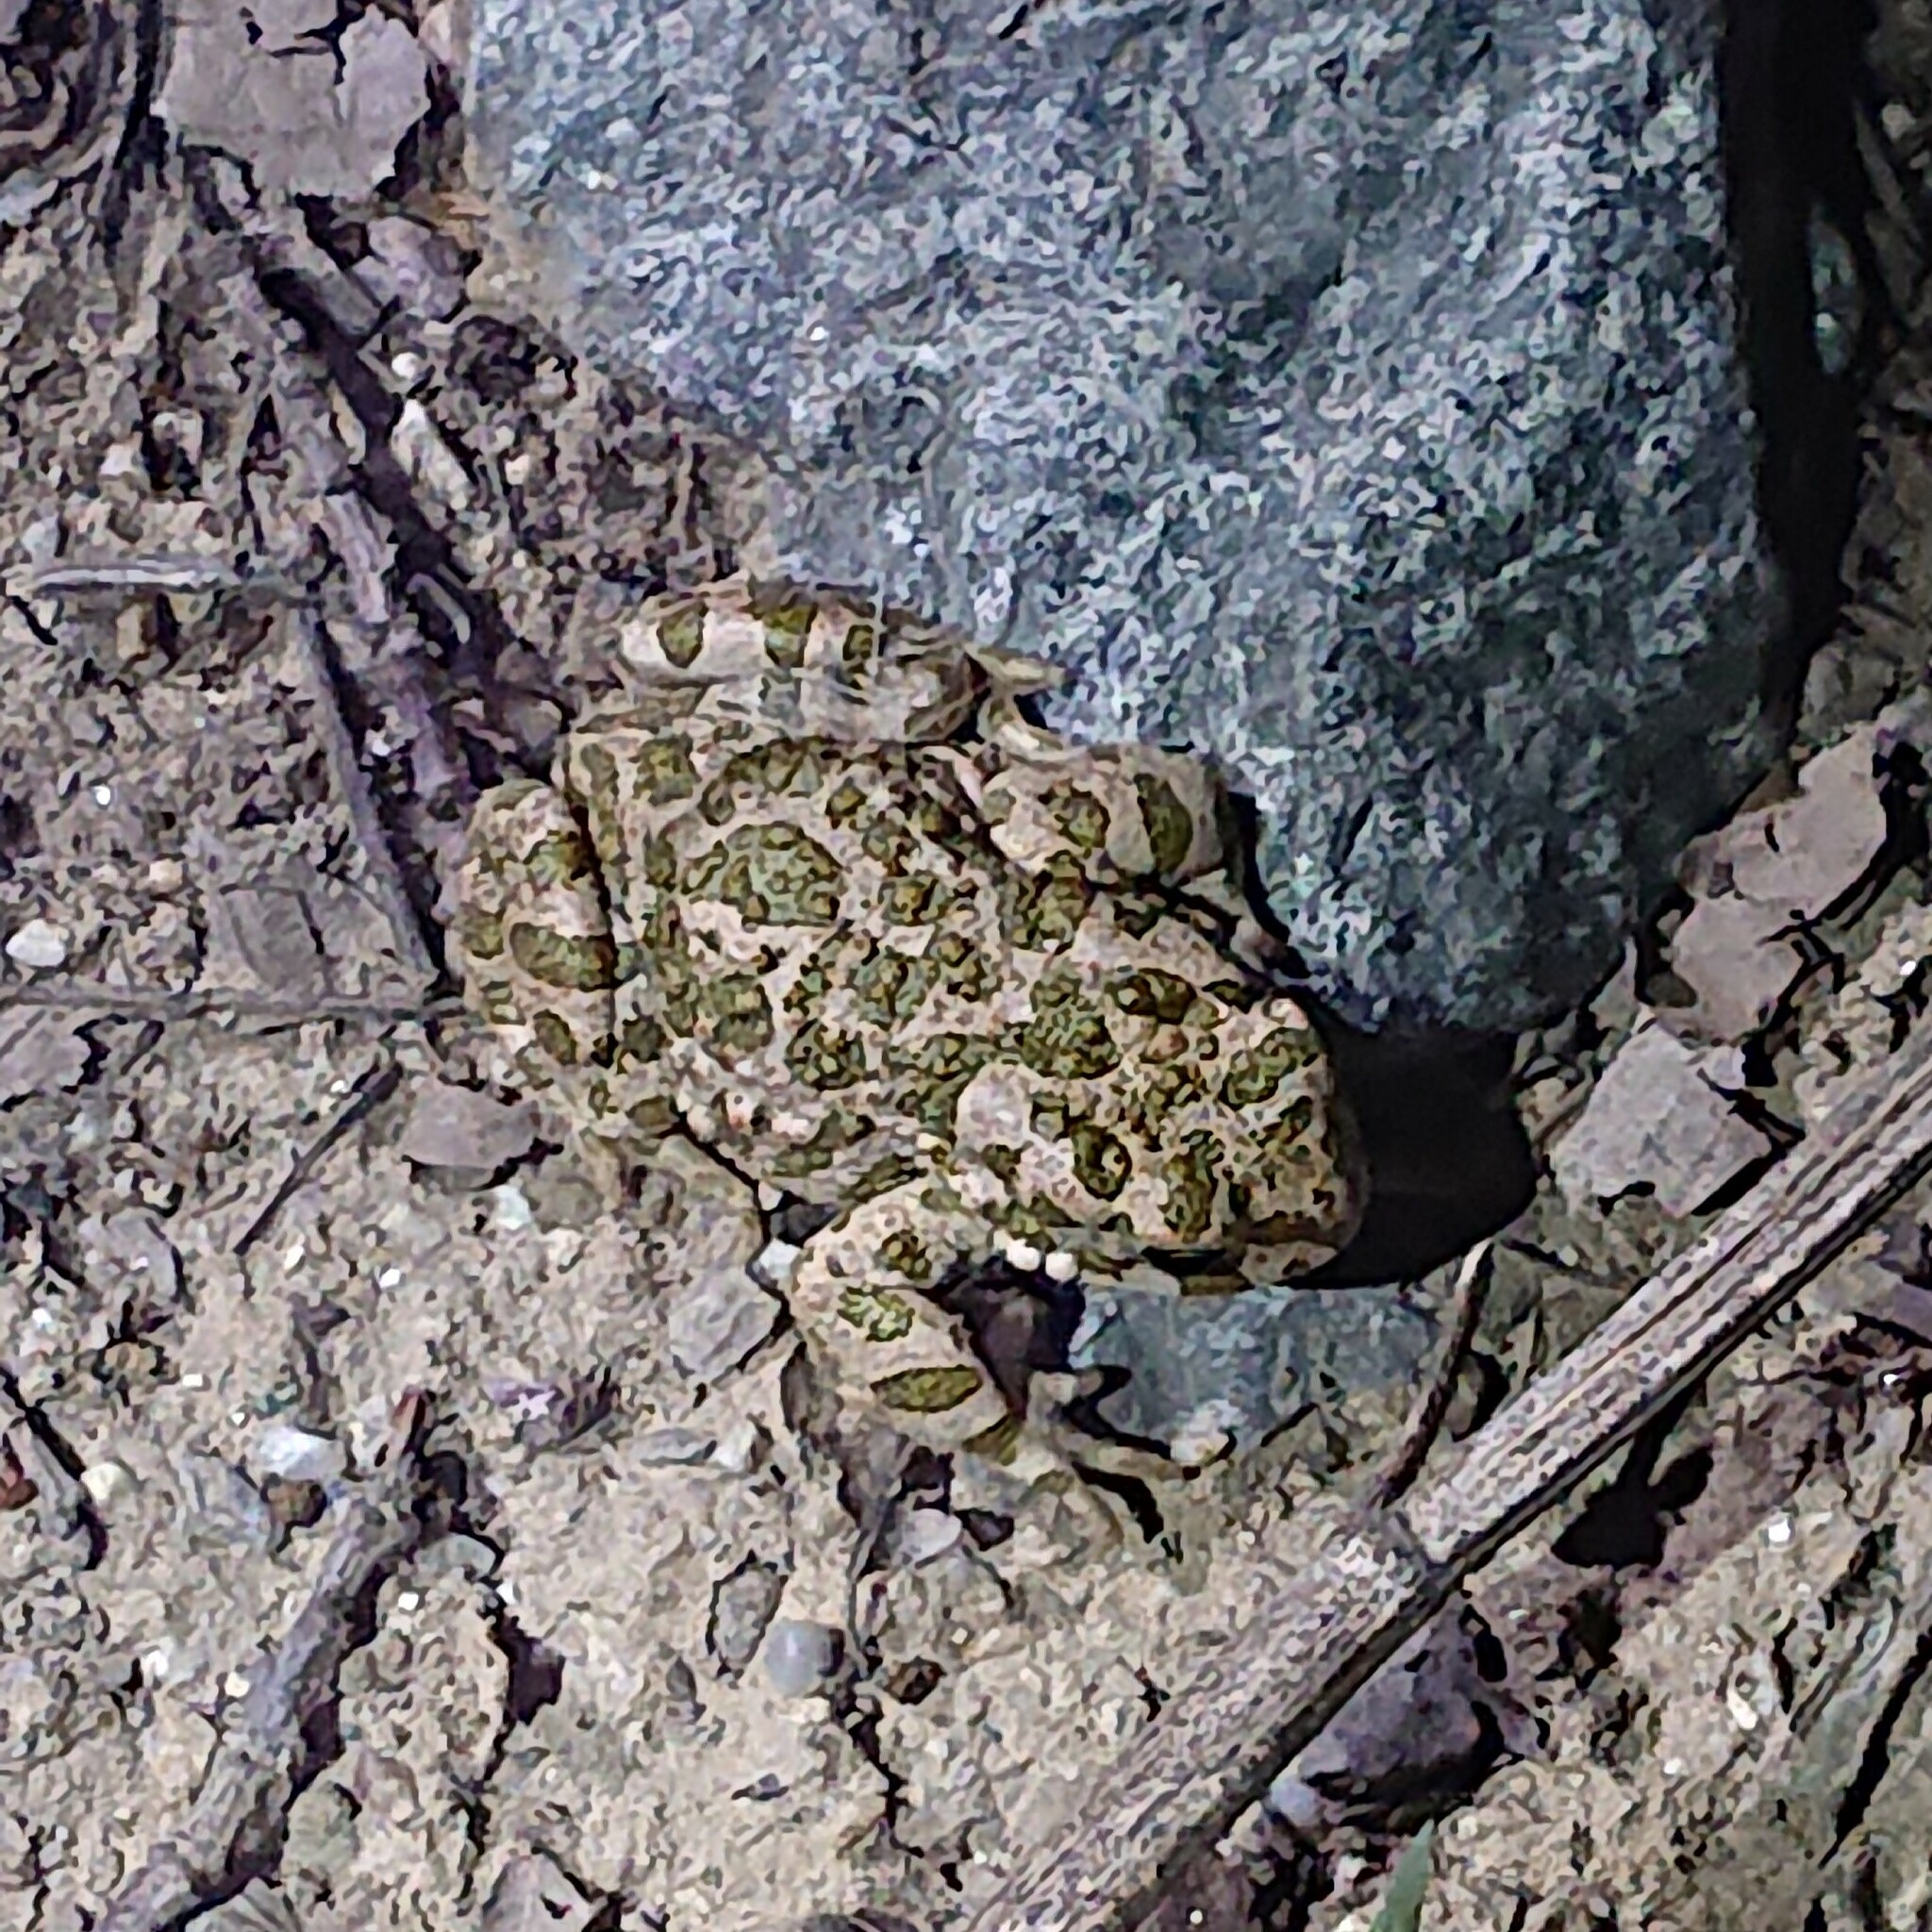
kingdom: Animalia
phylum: Chordata
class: Amphibia
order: Anura
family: Bufonidae
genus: Bufotes
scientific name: Bufotes viridis
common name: European green toad
